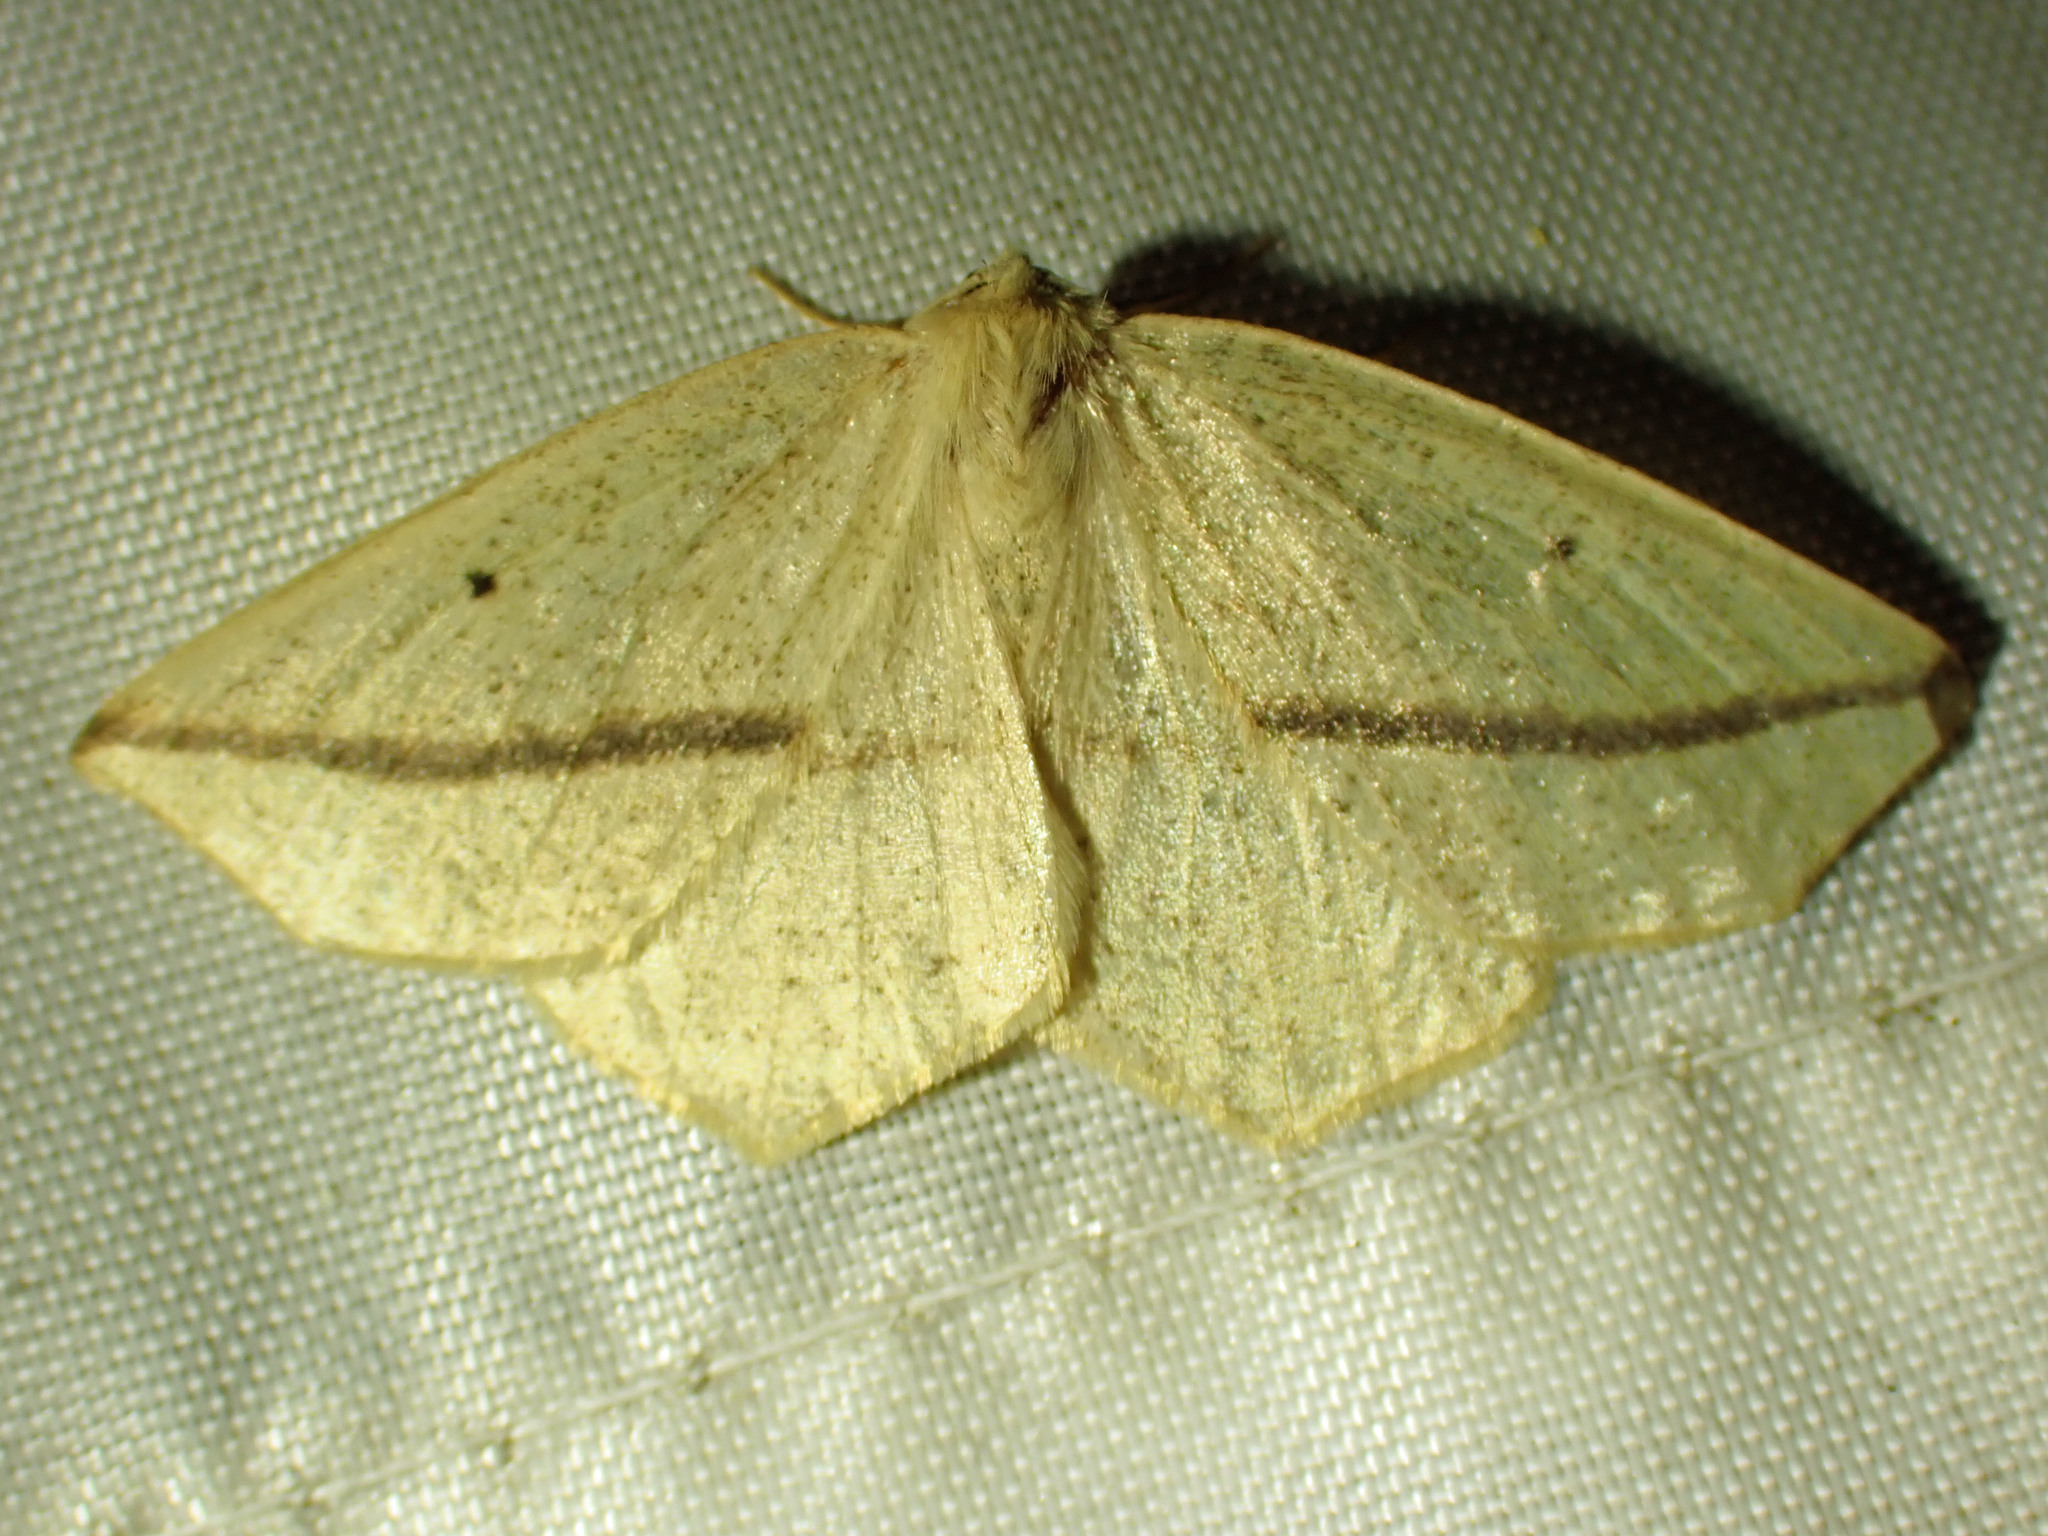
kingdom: Animalia
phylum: Arthropoda
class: Insecta
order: Lepidoptera
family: Geometridae
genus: Tetracis
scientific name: Tetracis crocallata
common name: Yellow slant-line
